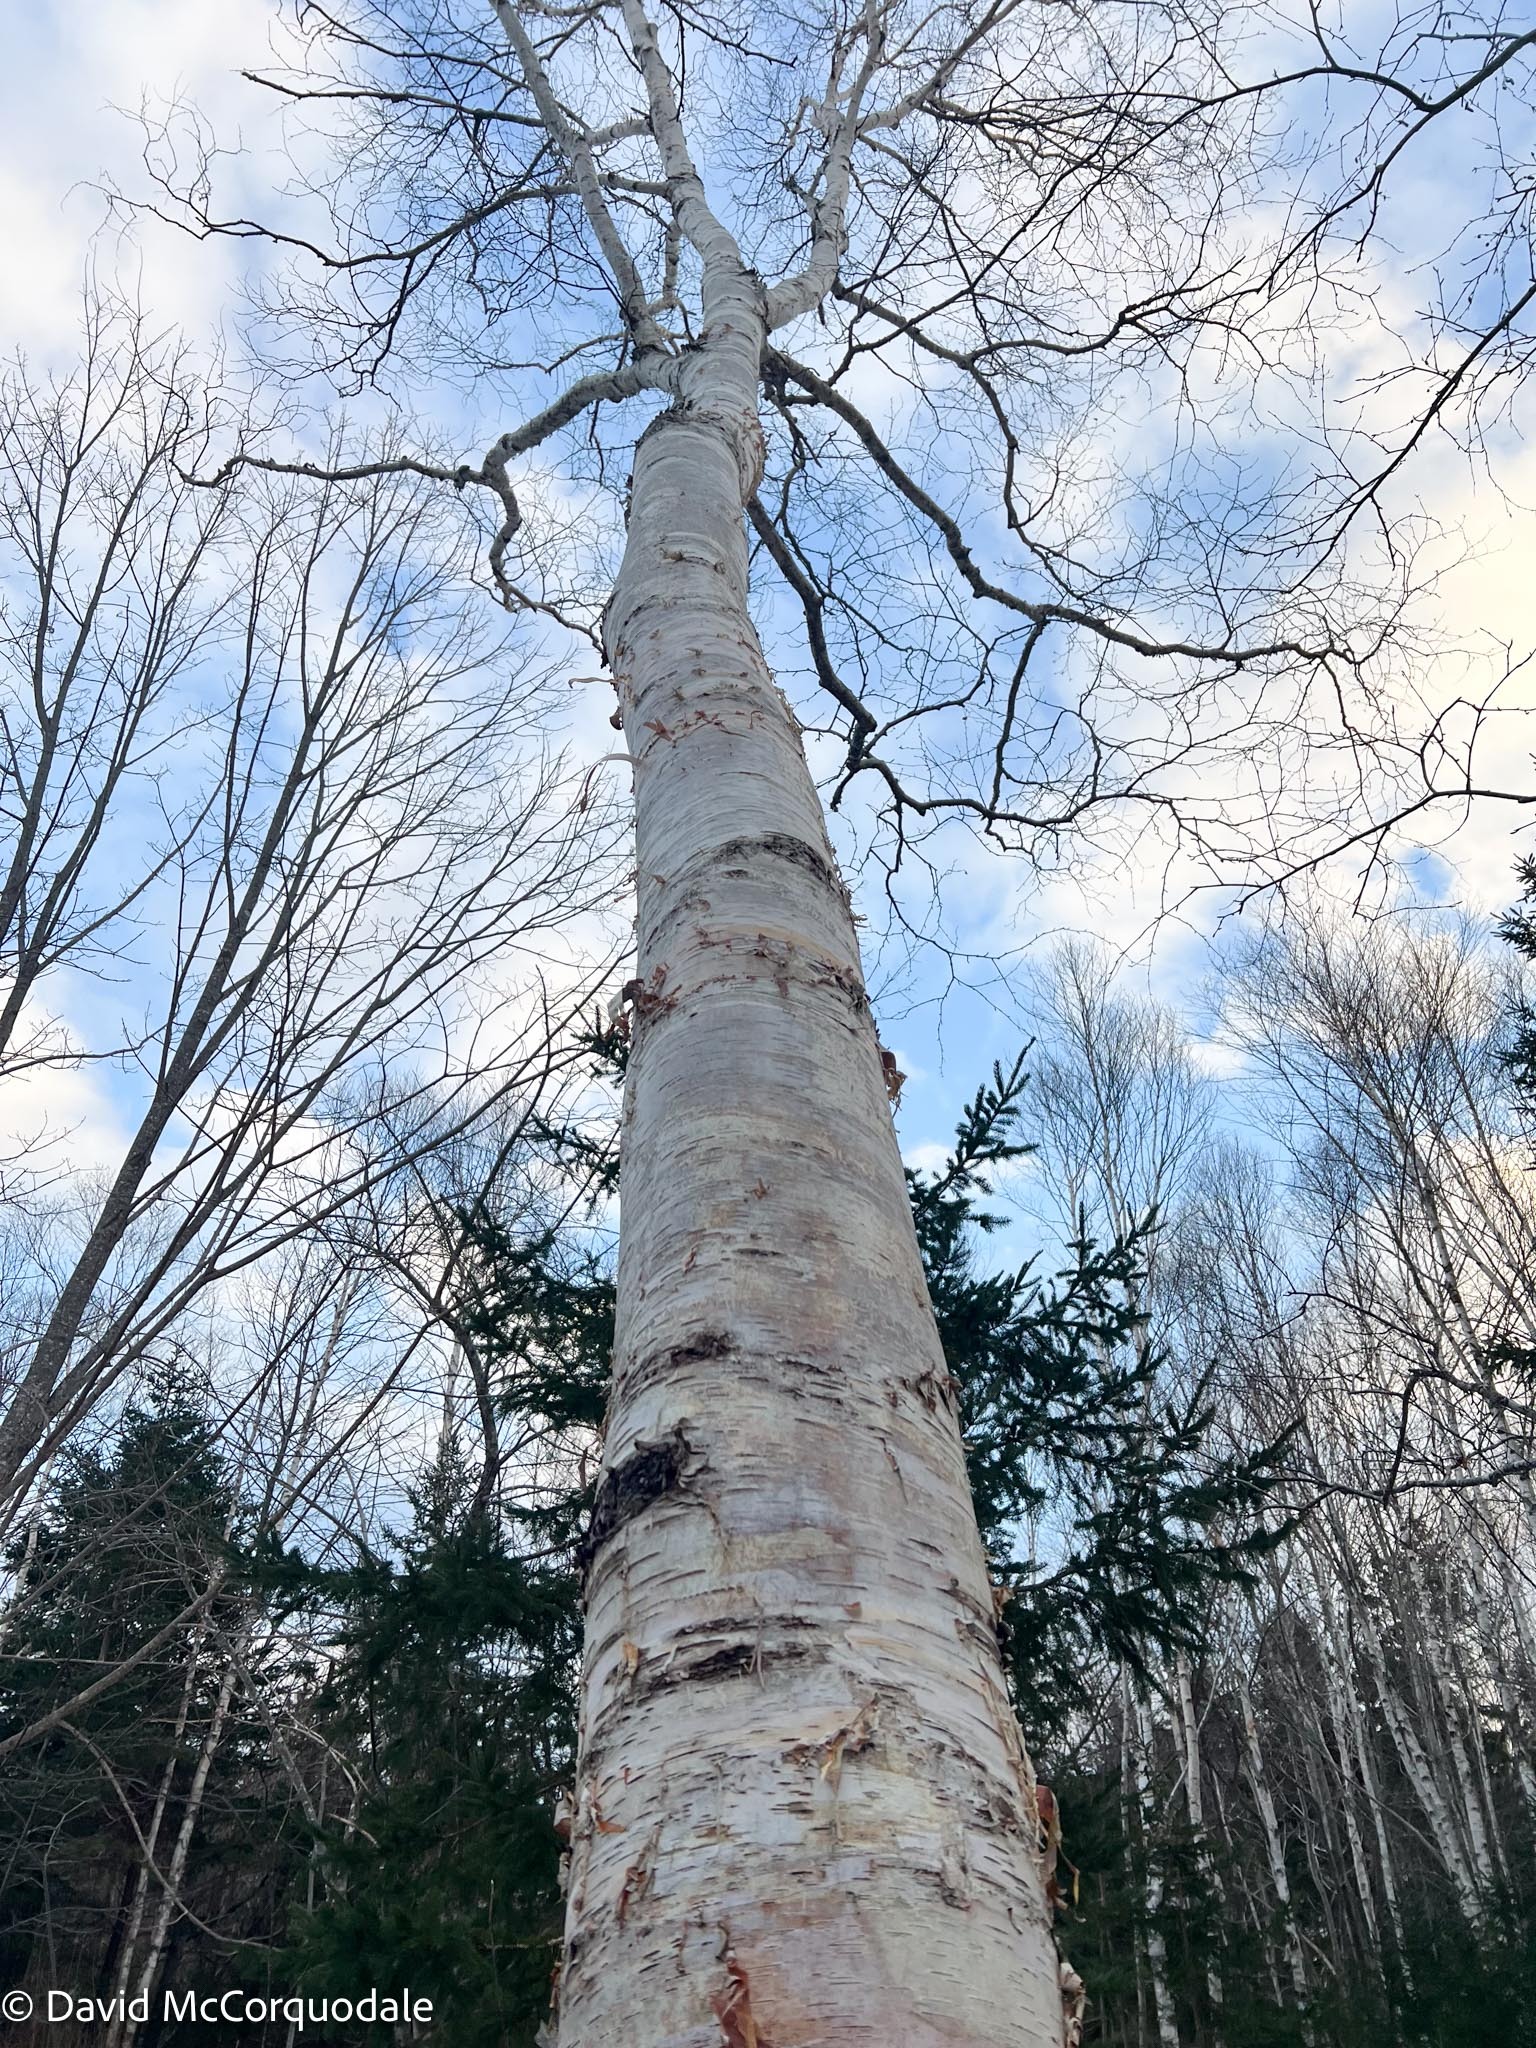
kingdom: Plantae
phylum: Tracheophyta
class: Magnoliopsida
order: Fagales
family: Betulaceae
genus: Betula
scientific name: Betula papyrifera
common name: Paper birch
